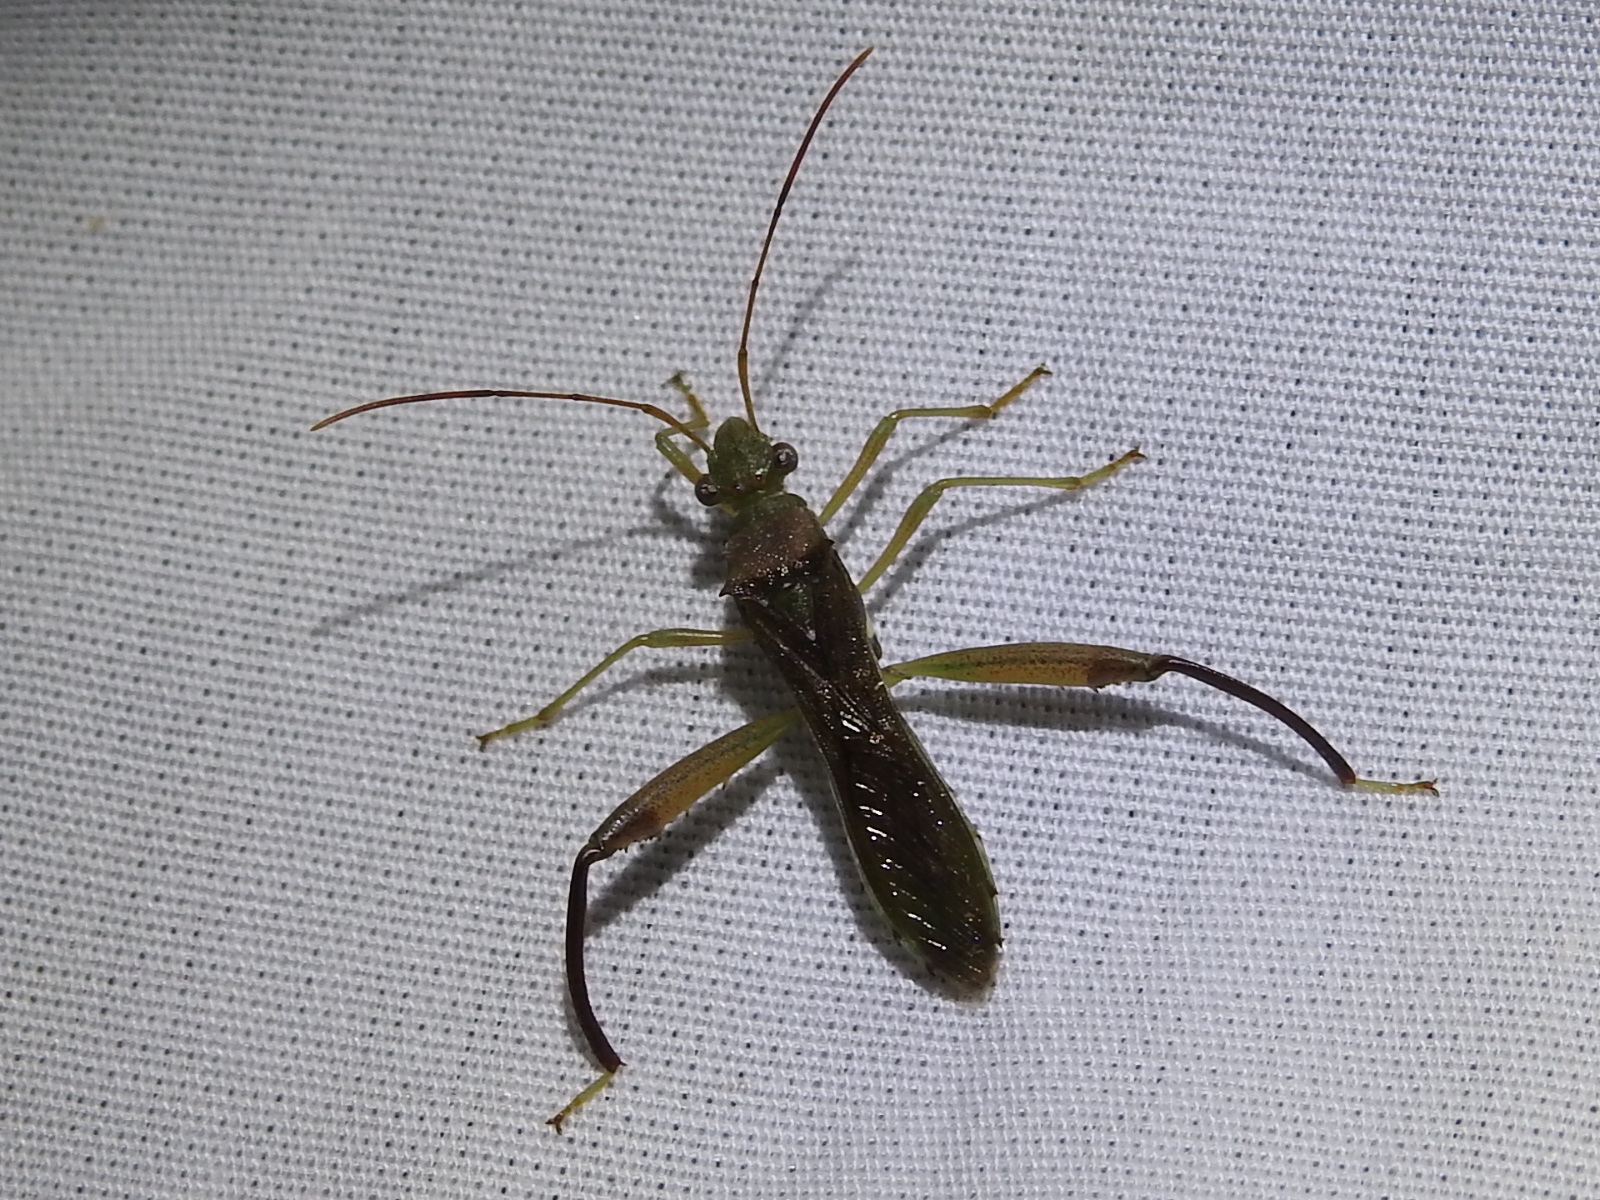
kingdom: Animalia
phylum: Arthropoda
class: Insecta
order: Hemiptera
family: Alydidae
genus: Hyalymenus
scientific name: Hyalymenus tarsatus
